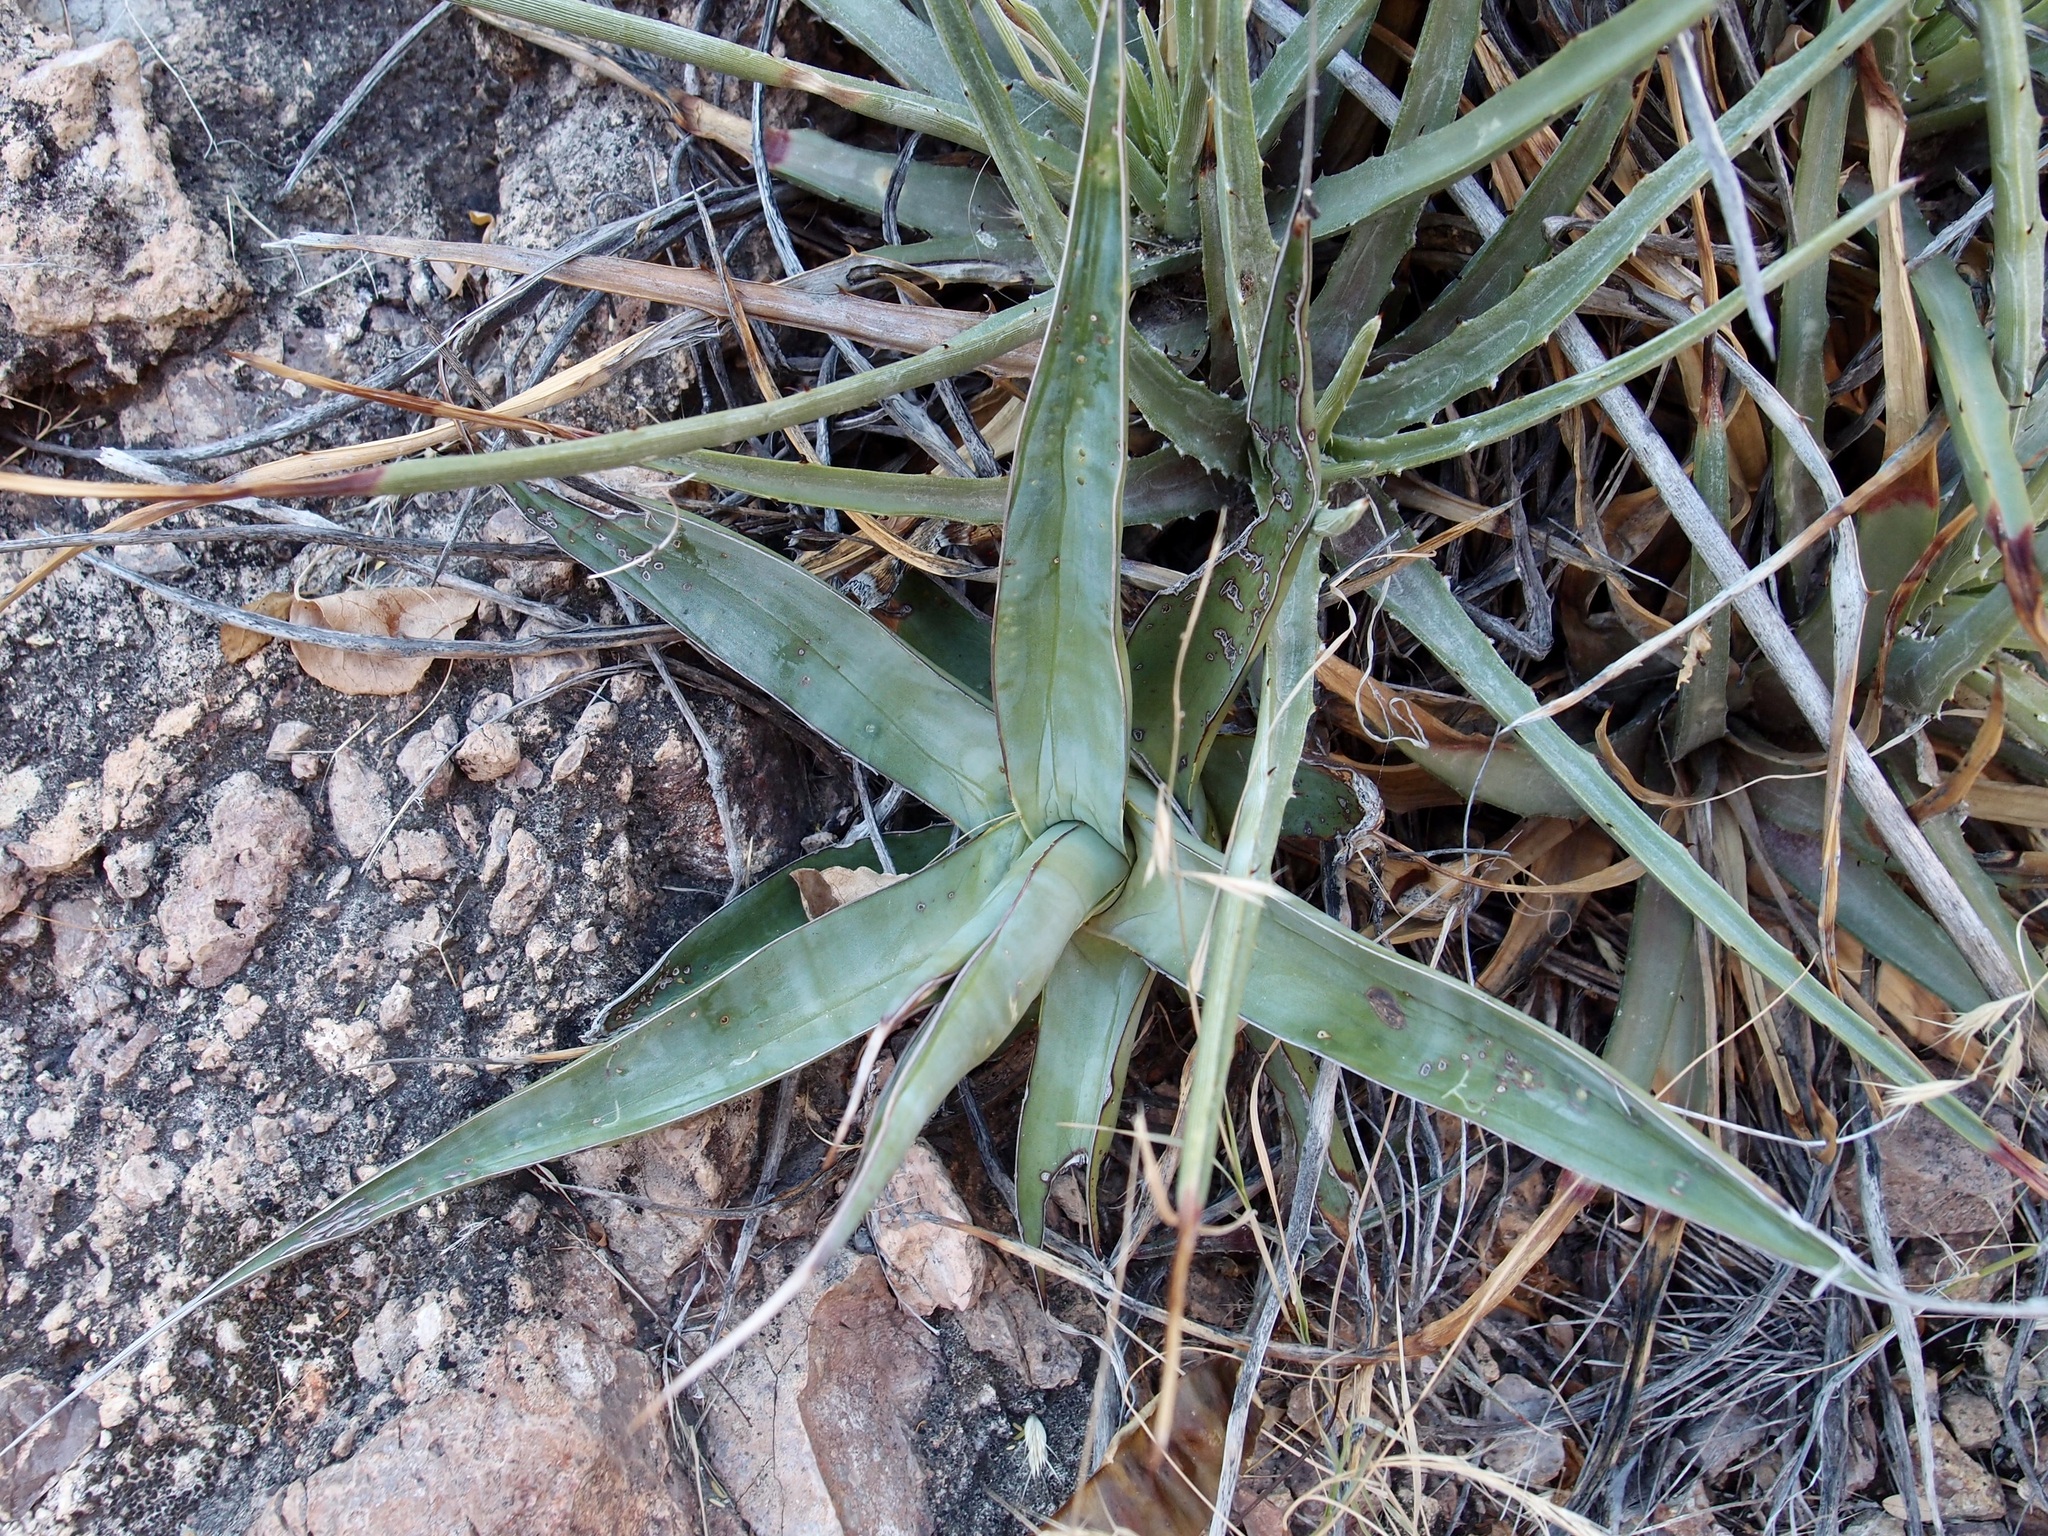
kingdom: Plantae
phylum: Tracheophyta
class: Liliopsida
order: Asparagales
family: Asparagaceae
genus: Agave
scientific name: Agave chrysoglossa
